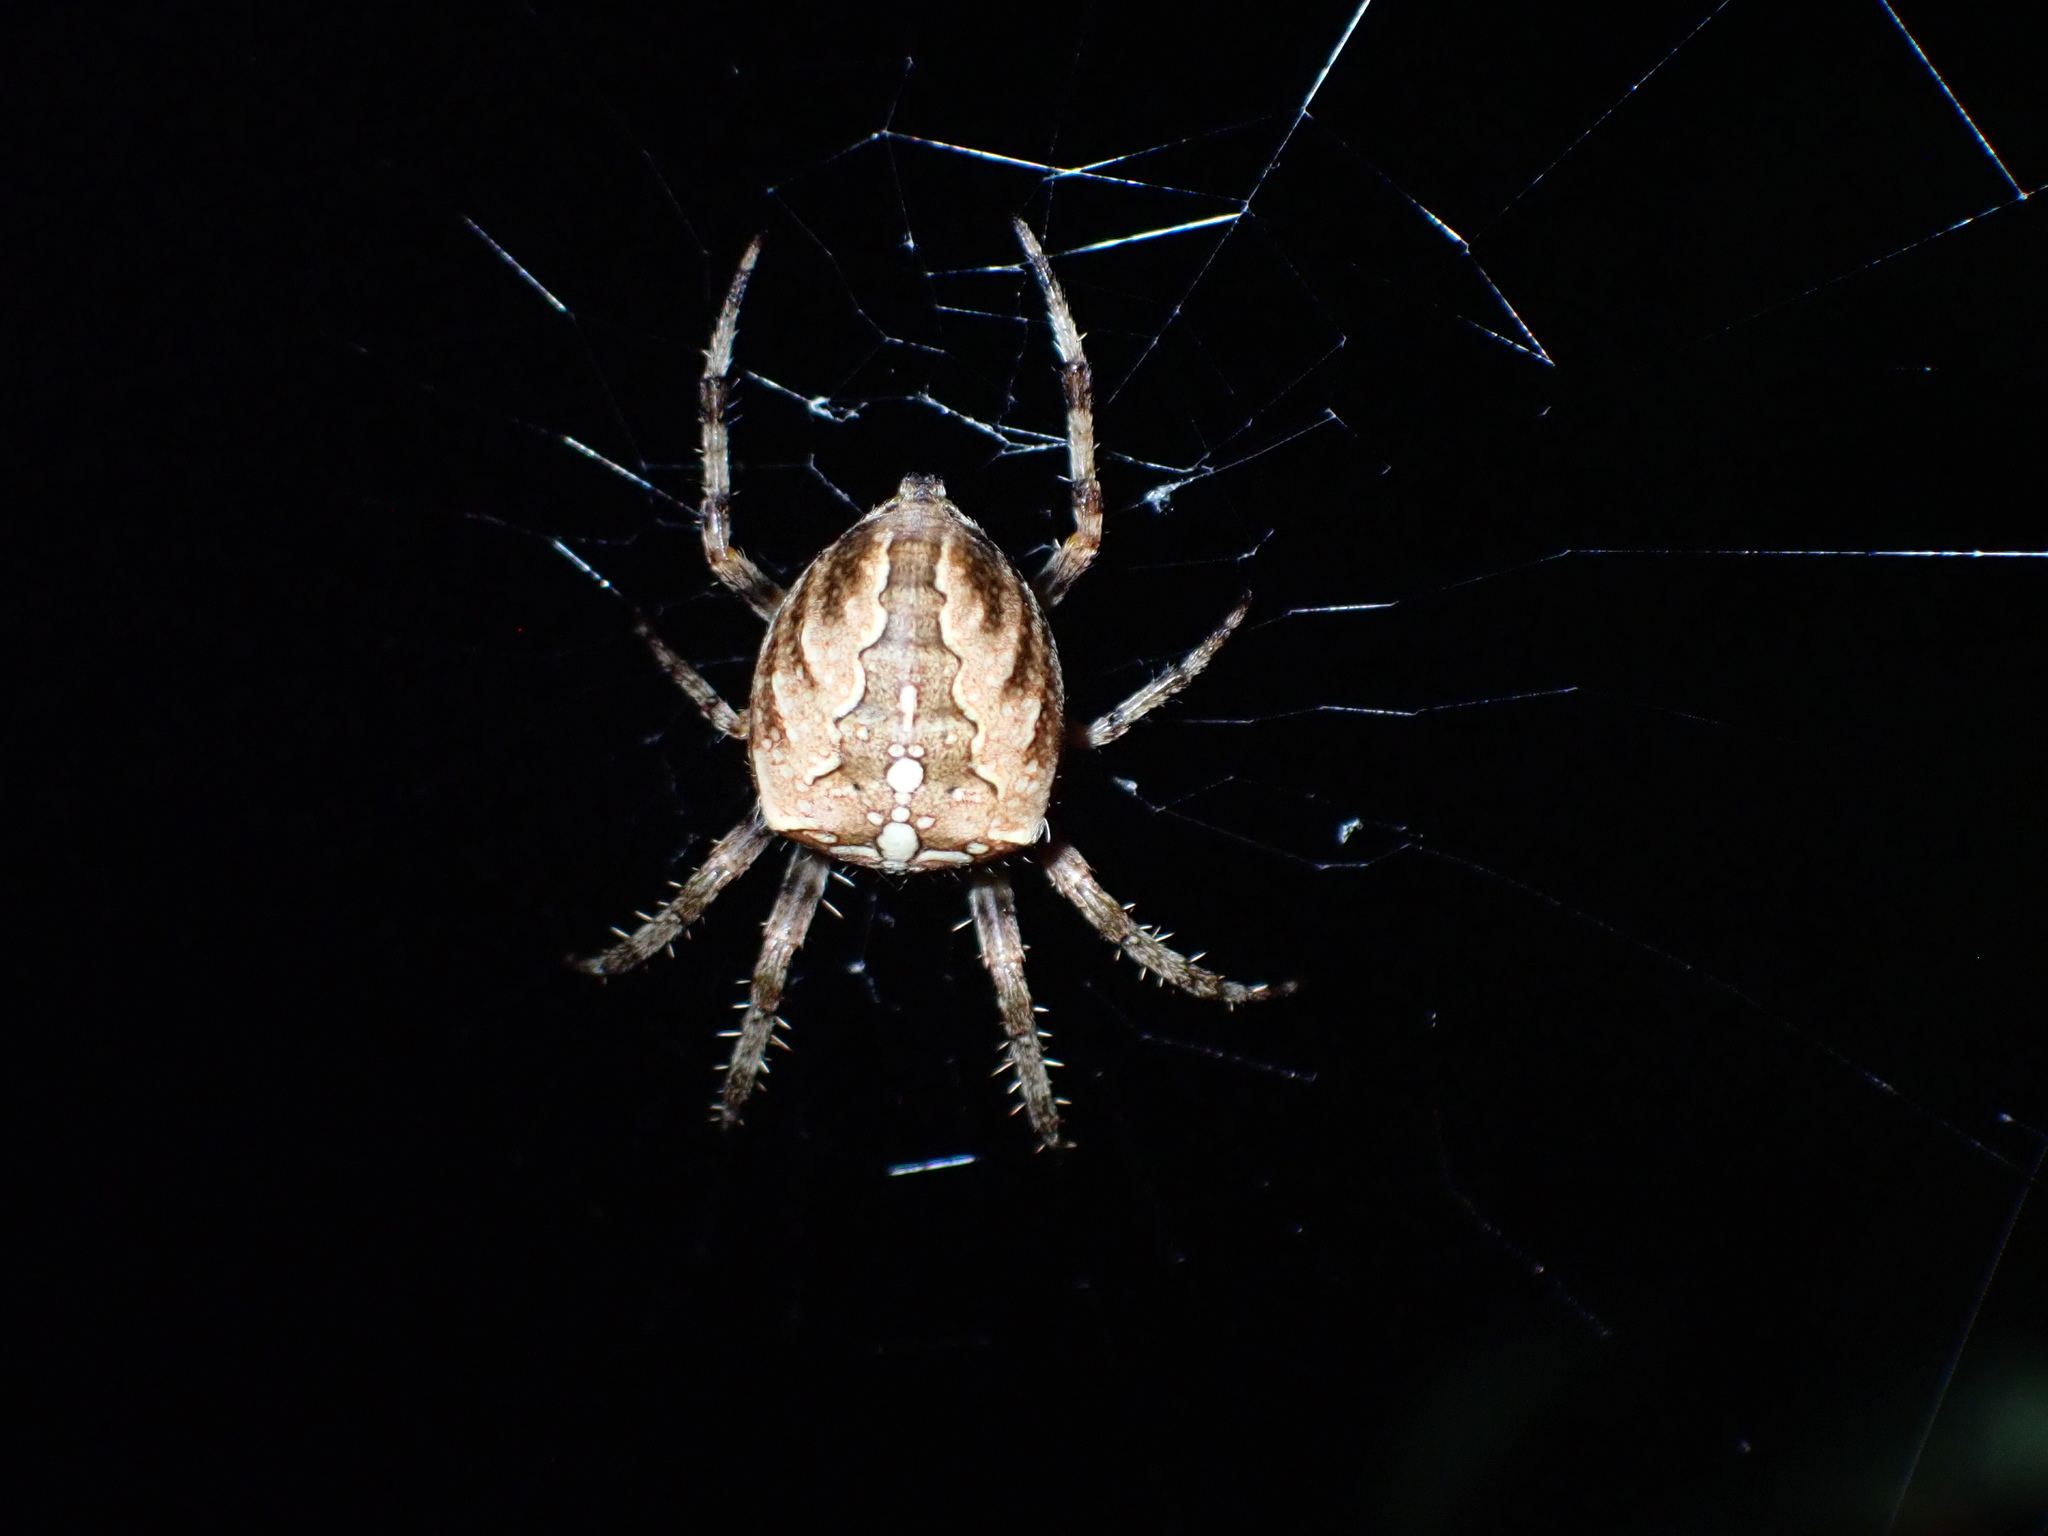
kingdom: Animalia
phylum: Arthropoda
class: Arachnida
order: Araneae
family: Araneidae
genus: Araneus
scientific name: Araneus diadematus
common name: Cross orbweaver
